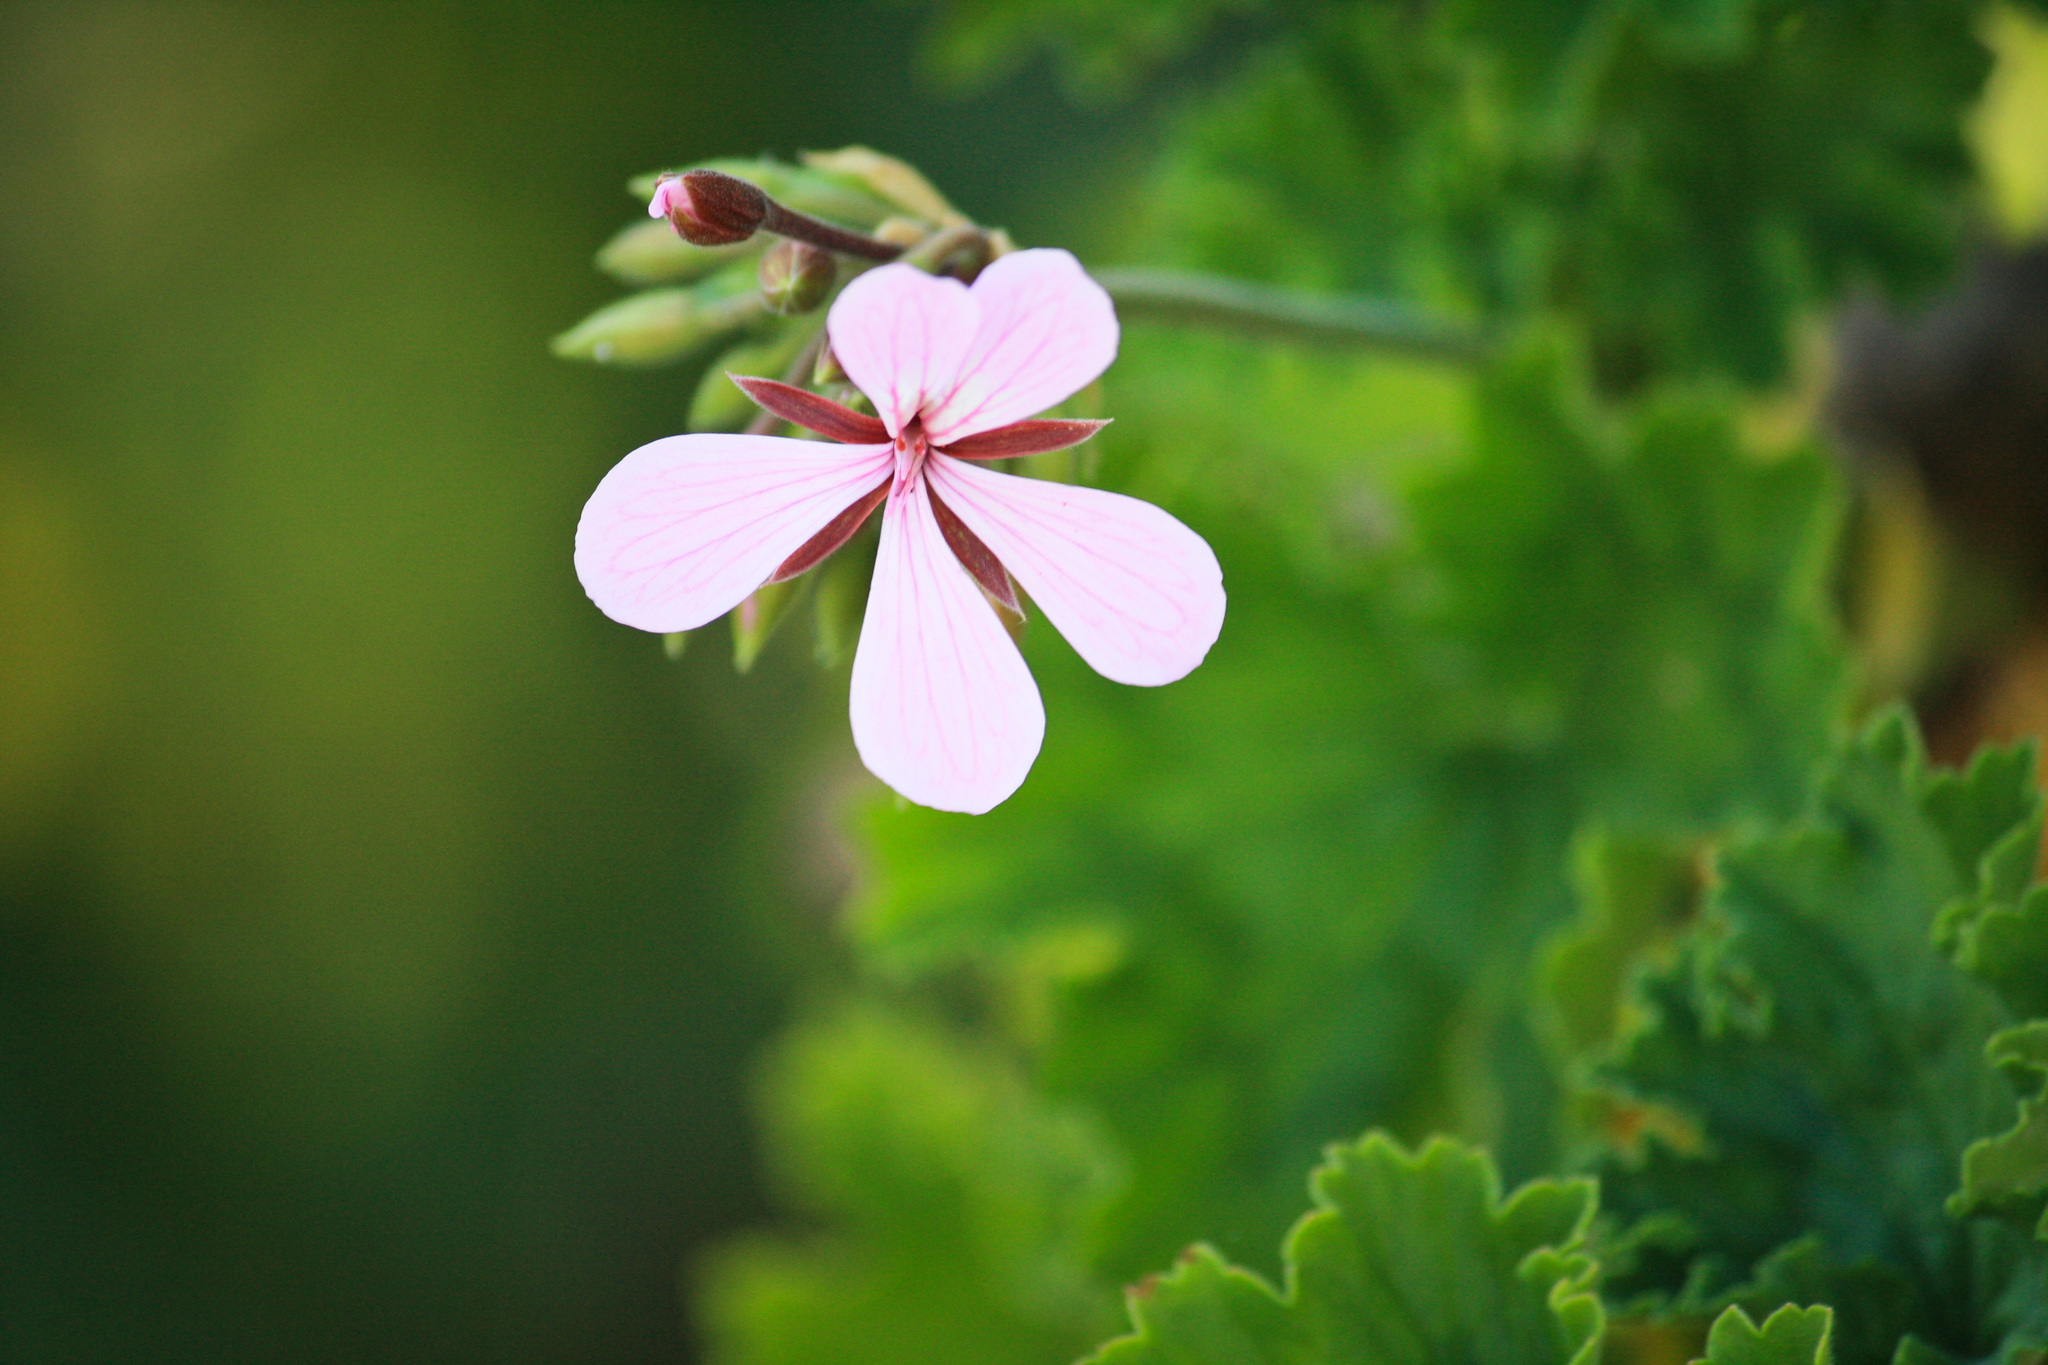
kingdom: Plantae
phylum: Tracheophyta
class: Magnoliopsida
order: Geraniales
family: Geraniaceae
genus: Pelargonium
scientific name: Pelargonium zonale
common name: Horseshoe geranium
